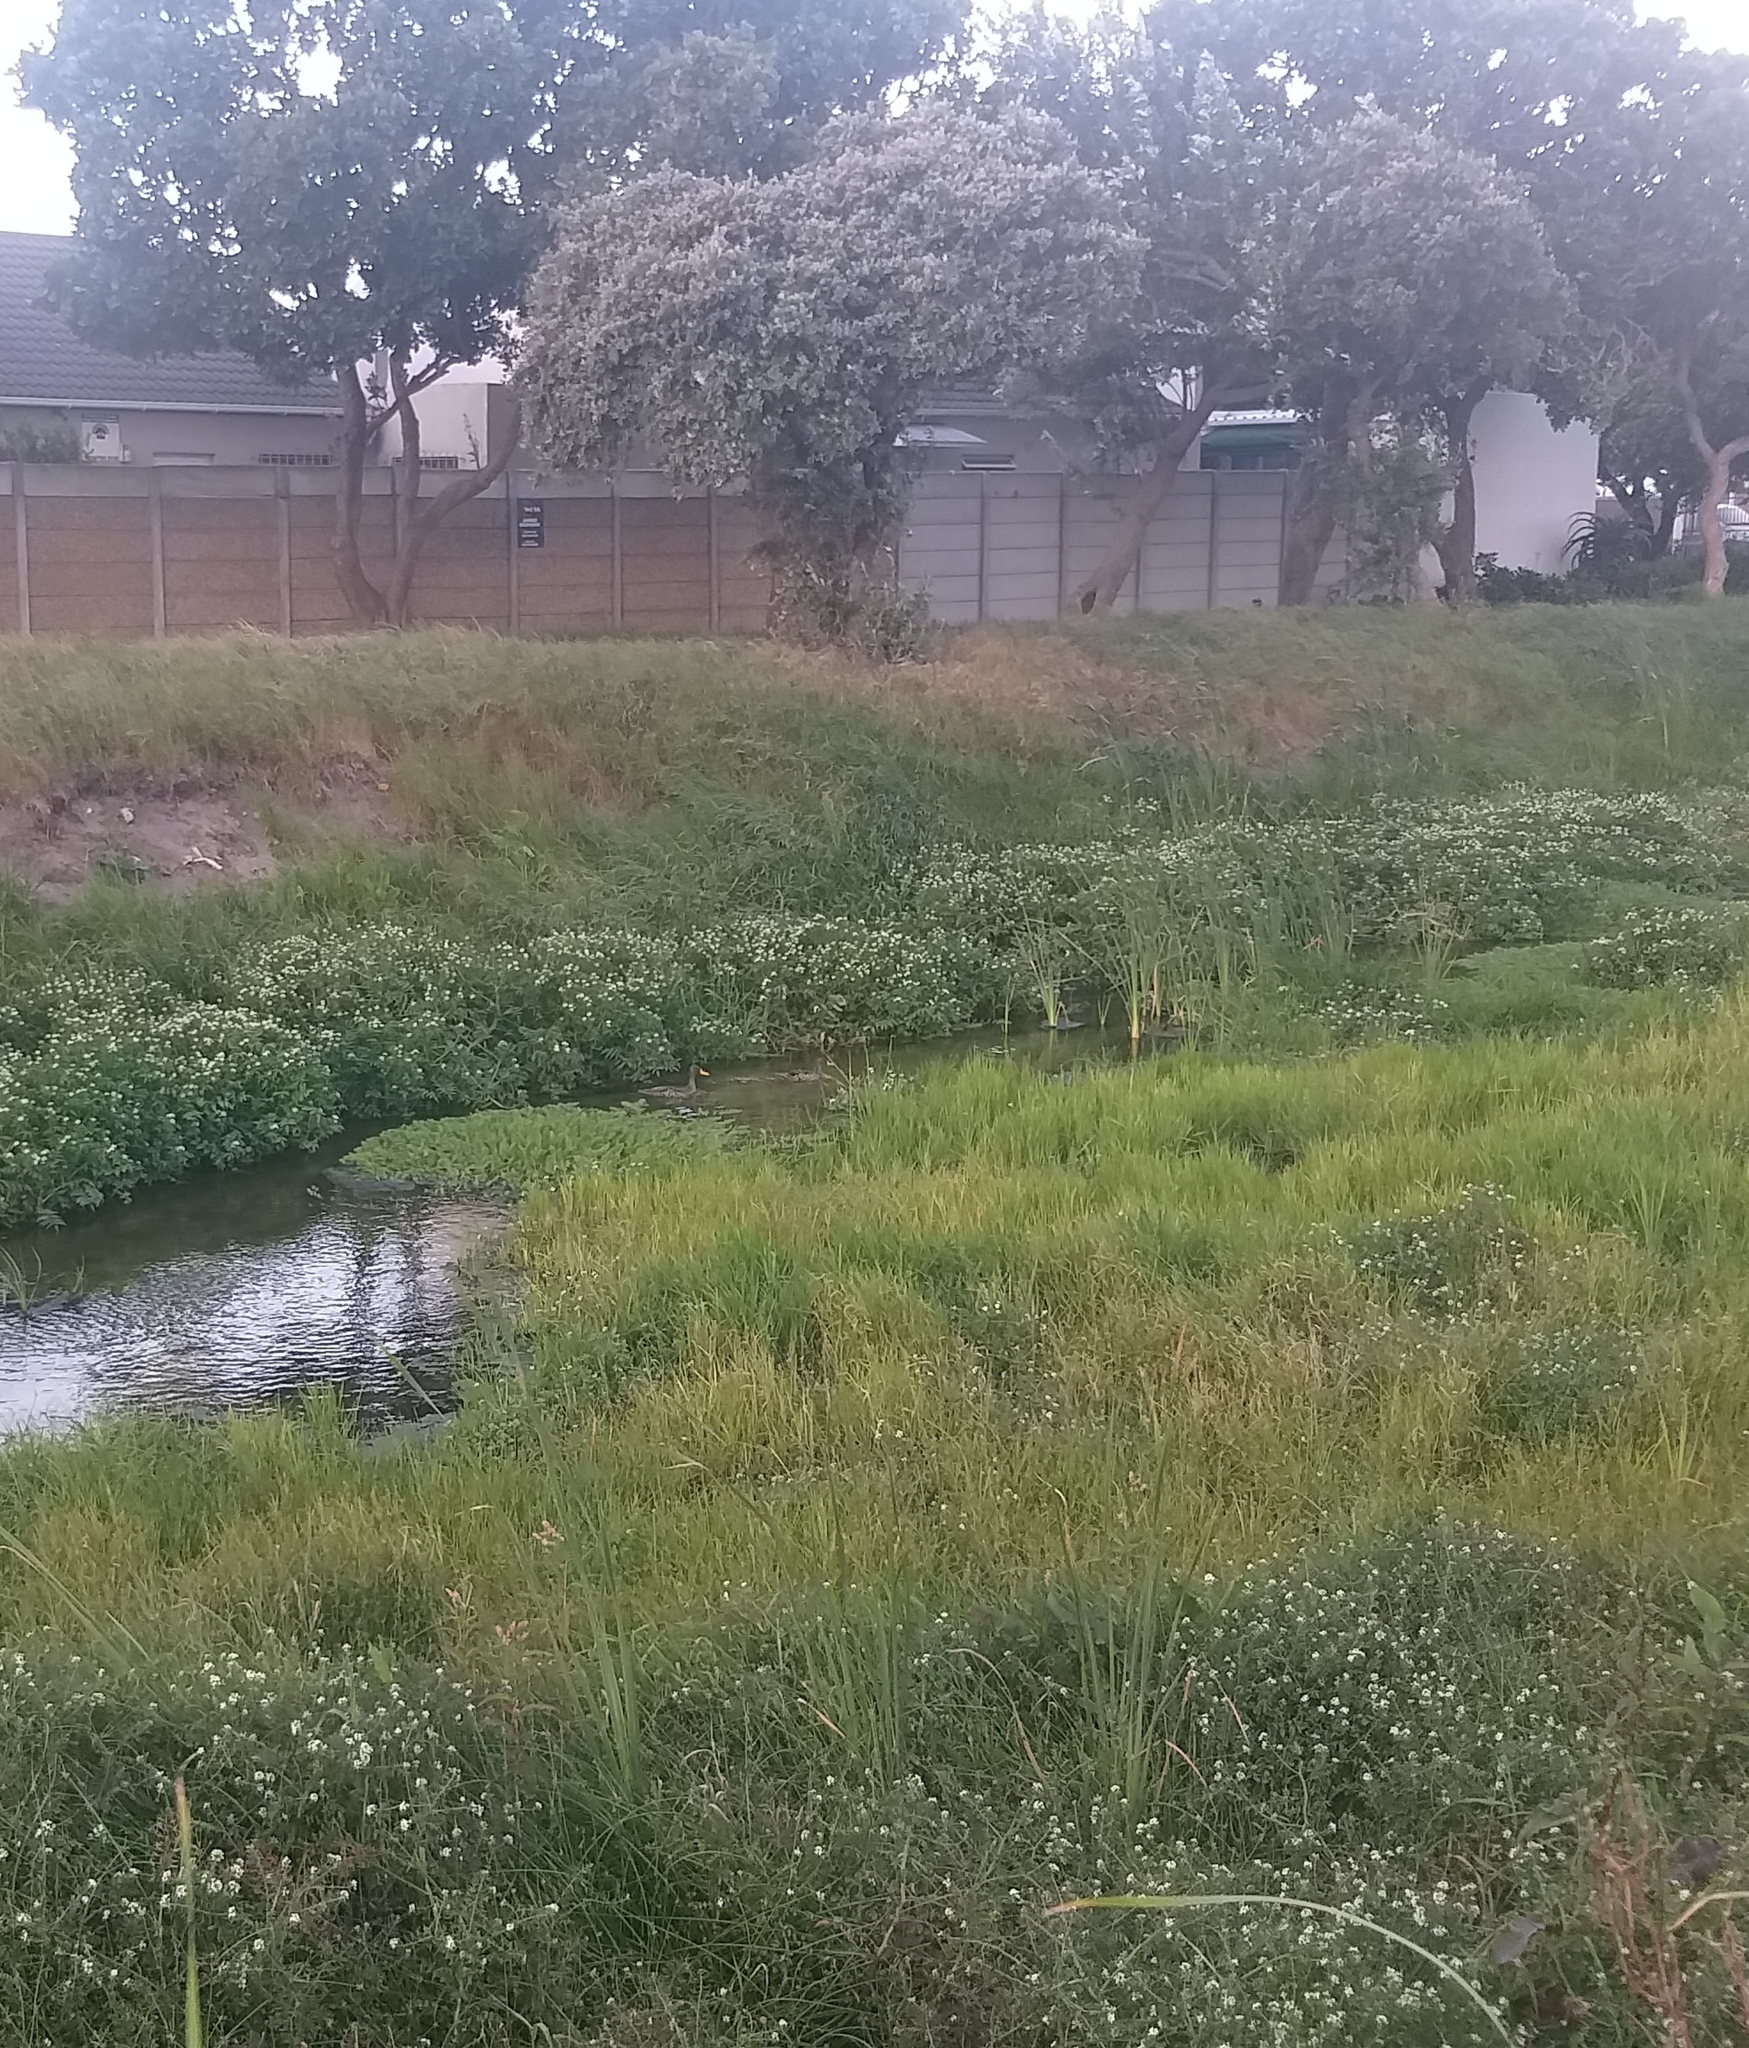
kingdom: Animalia
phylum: Chordata
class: Aves
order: Anseriformes
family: Anatidae
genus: Anas
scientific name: Anas undulata
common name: Yellow-billed duck
